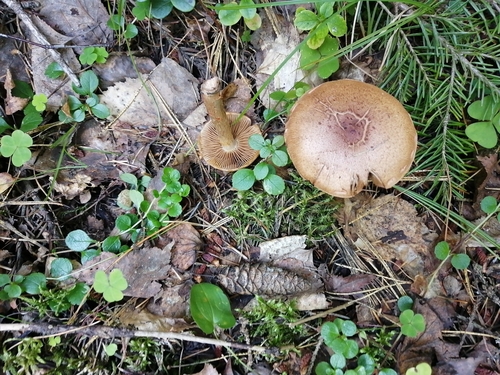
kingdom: Fungi
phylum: Basidiomycota
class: Agaricomycetes
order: Agaricales
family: Cortinariaceae
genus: Cortinarius
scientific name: Cortinarius
